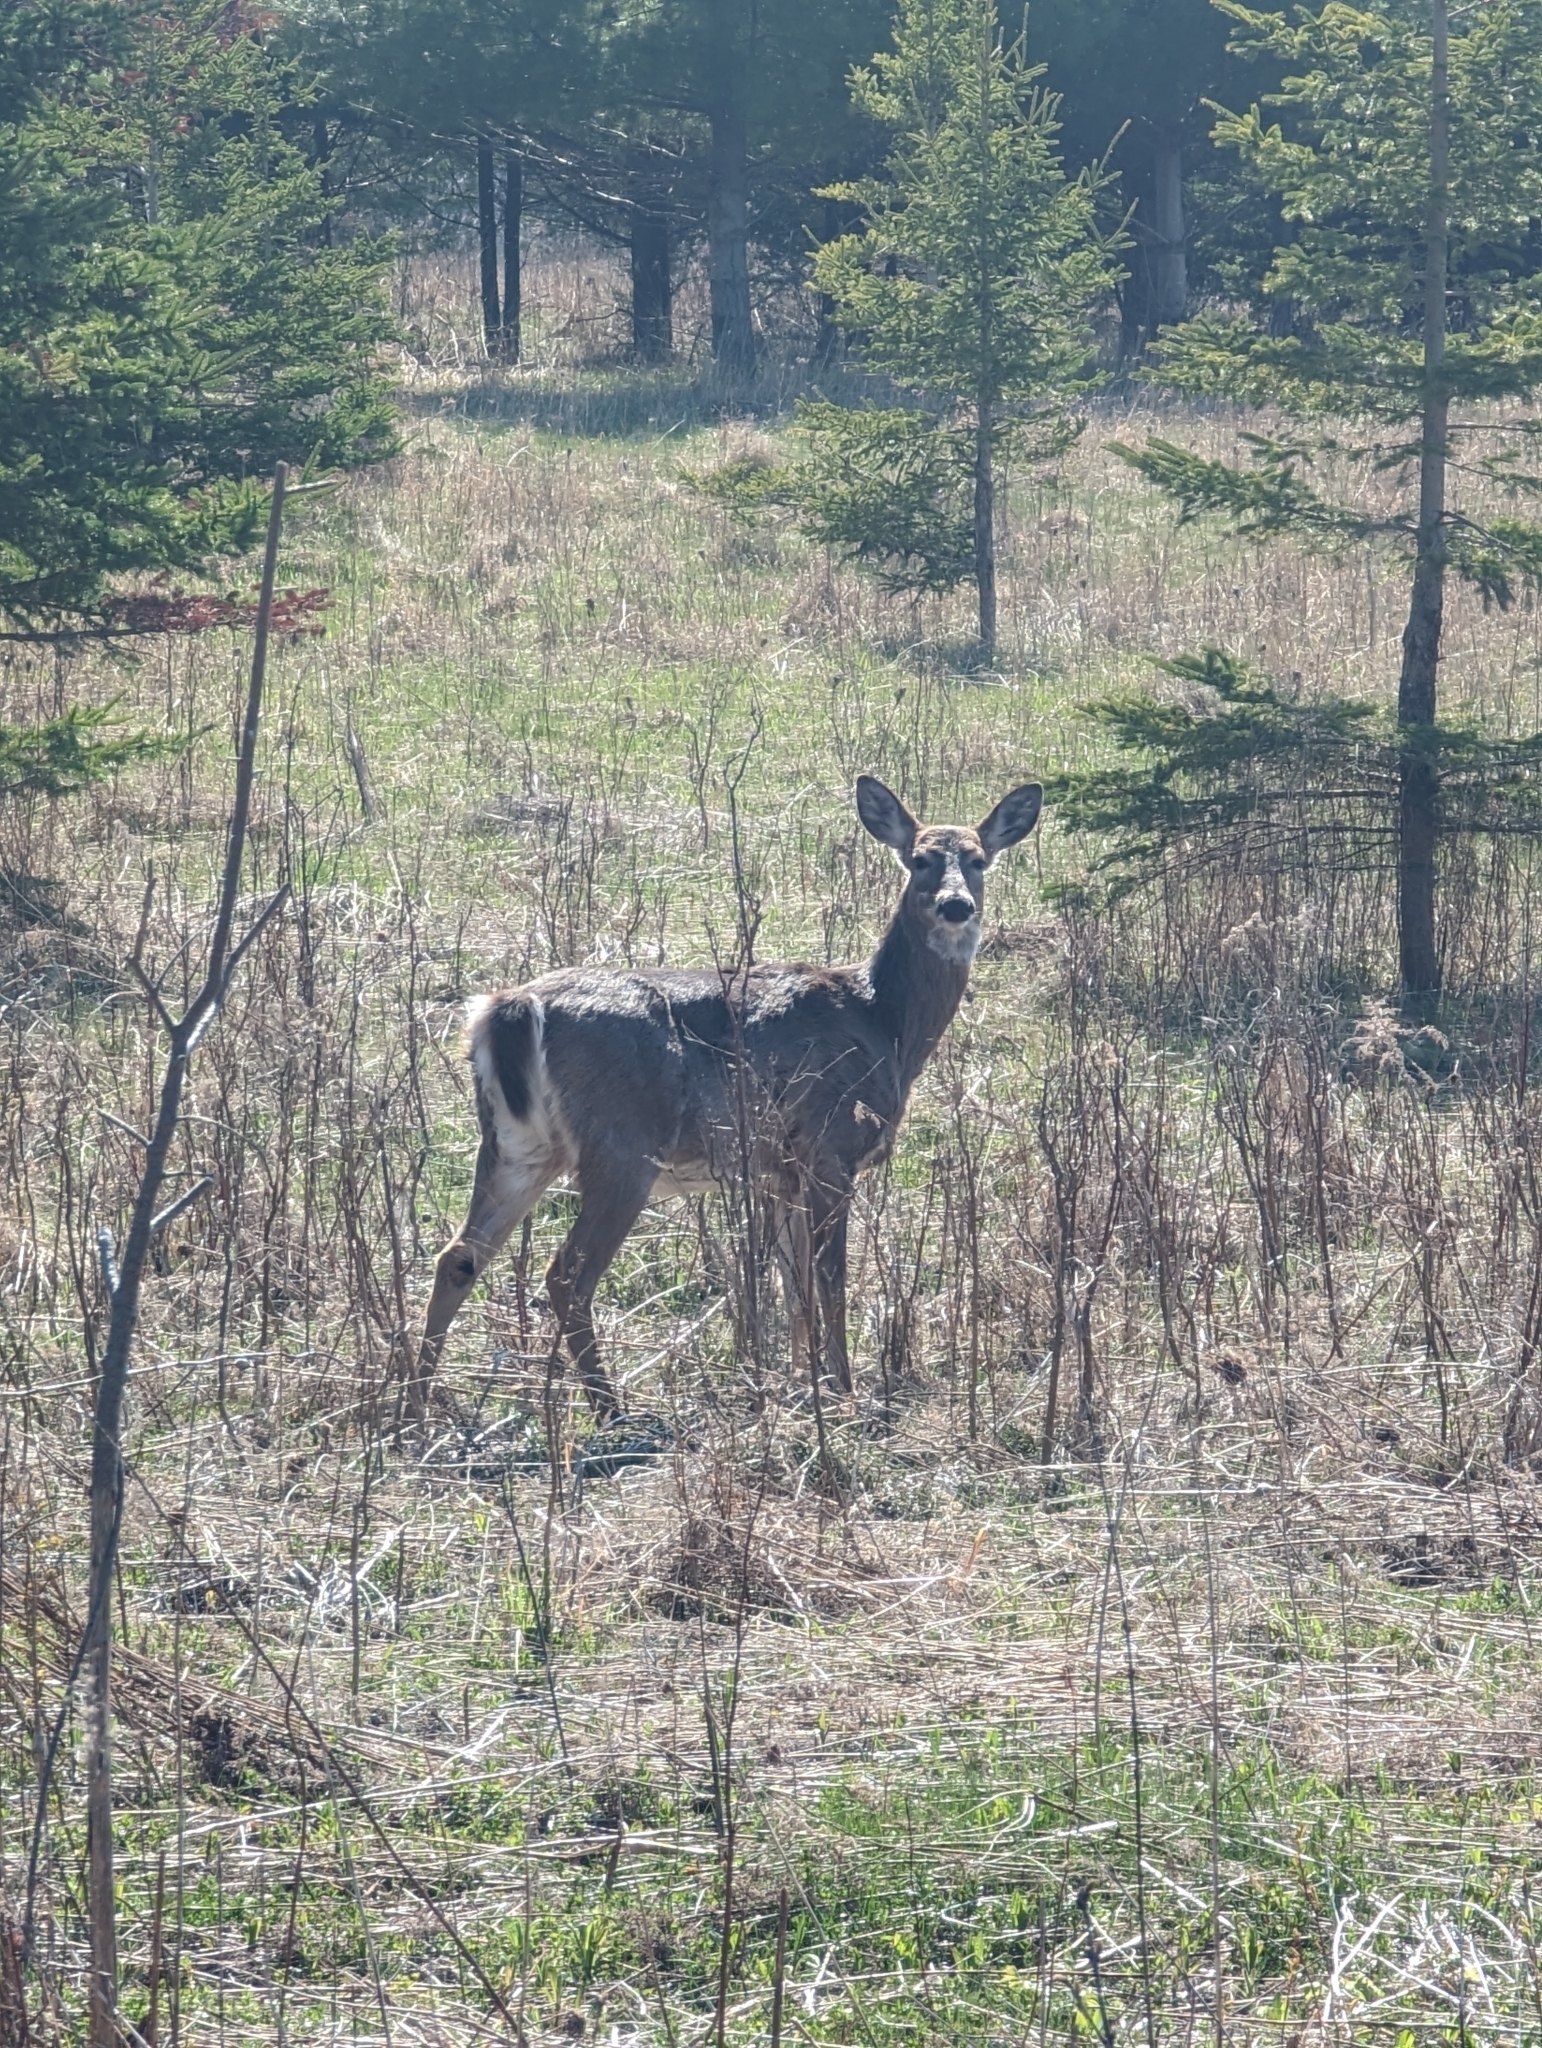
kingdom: Animalia
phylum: Chordata
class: Mammalia
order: Artiodactyla
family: Cervidae
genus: Odocoileus
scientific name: Odocoileus virginianus
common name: White-tailed deer
